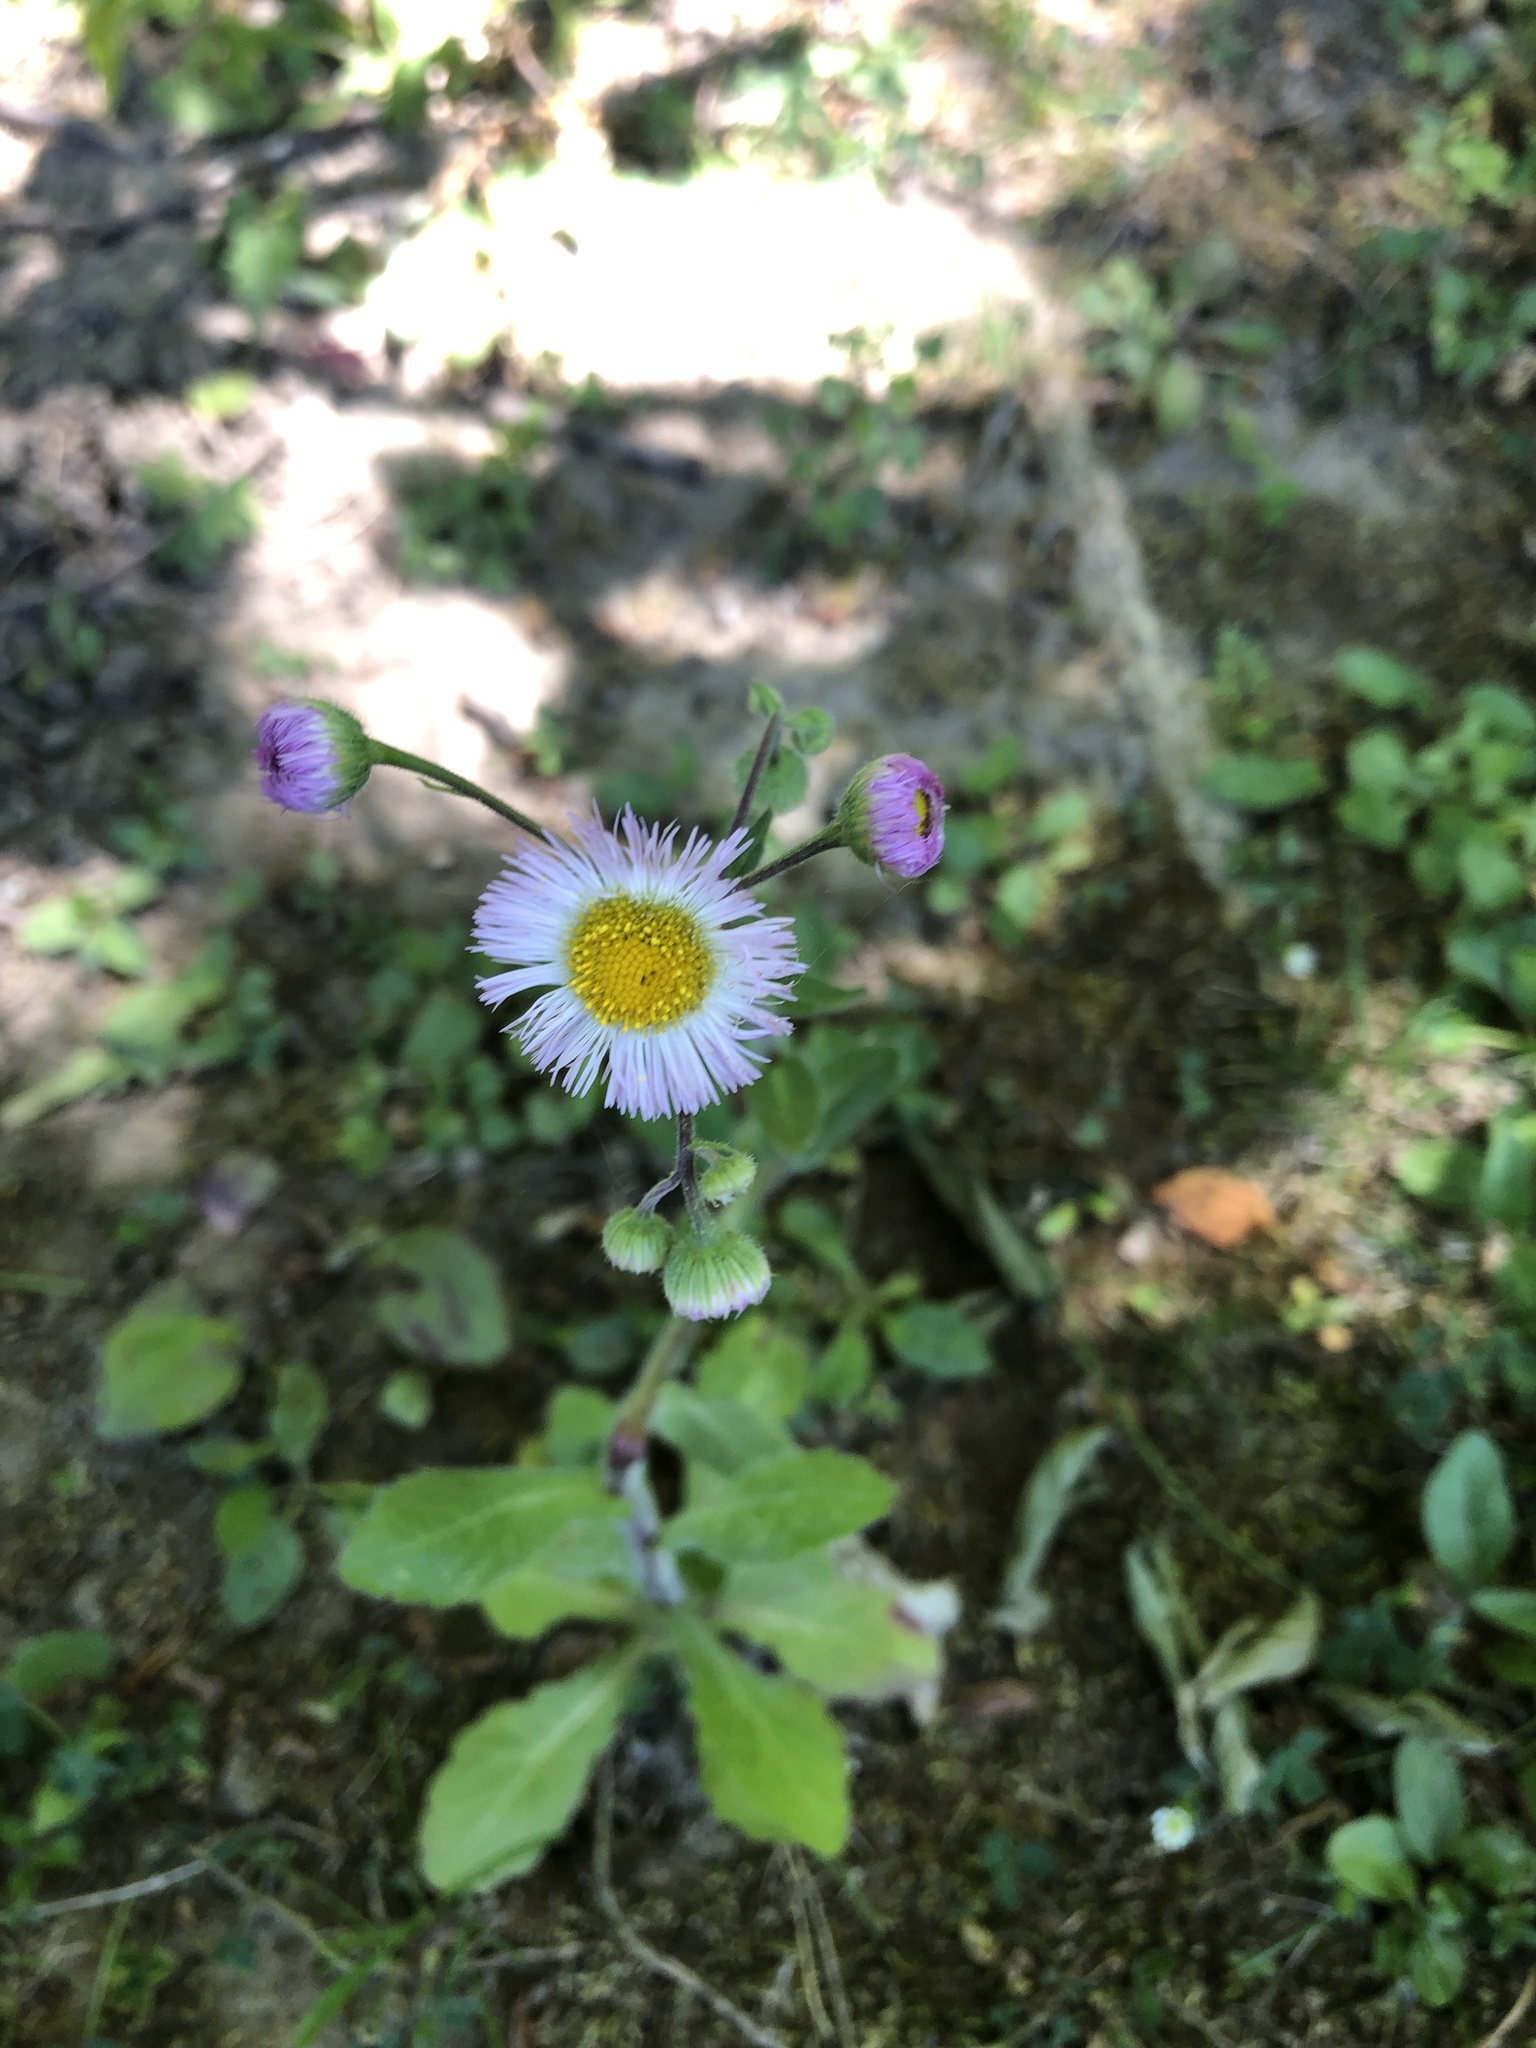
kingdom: Plantae
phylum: Tracheophyta
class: Magnoliopsida
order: Asterales
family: Asteraceae
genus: Erigeron
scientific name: Erigeron philadelphicus
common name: Robin's-plantain
